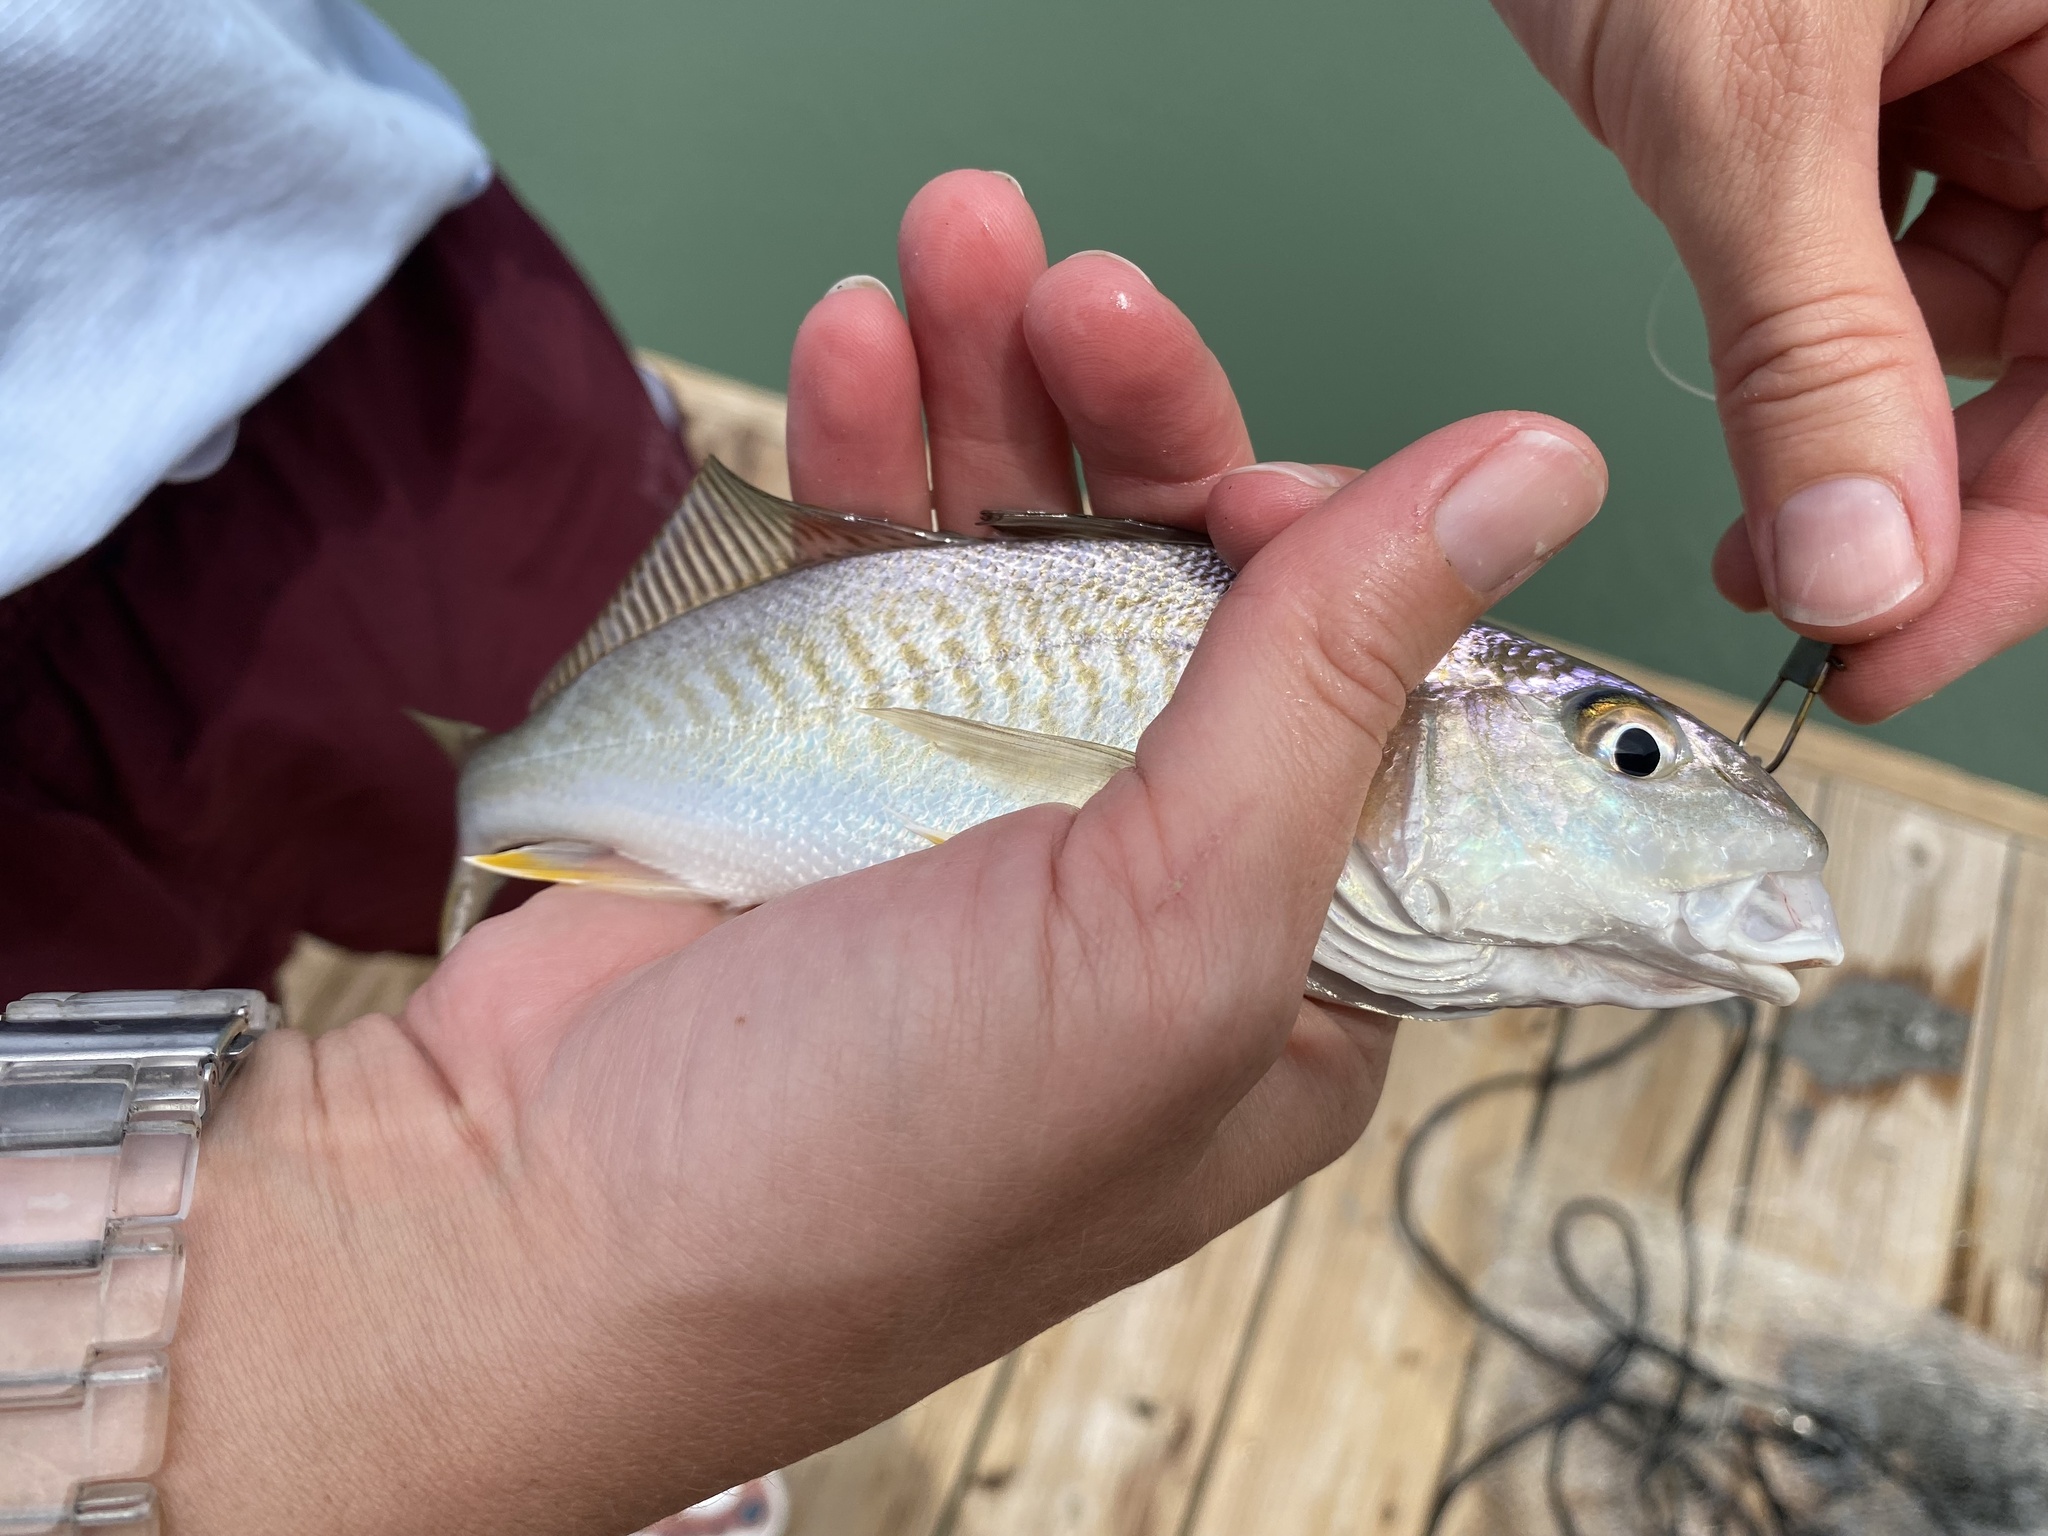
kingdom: Animalia
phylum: Chordata
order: Perciformes
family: Sciaenidae
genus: Micropogonias
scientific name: Micropogonias undulatus
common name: Atlantic croaker
